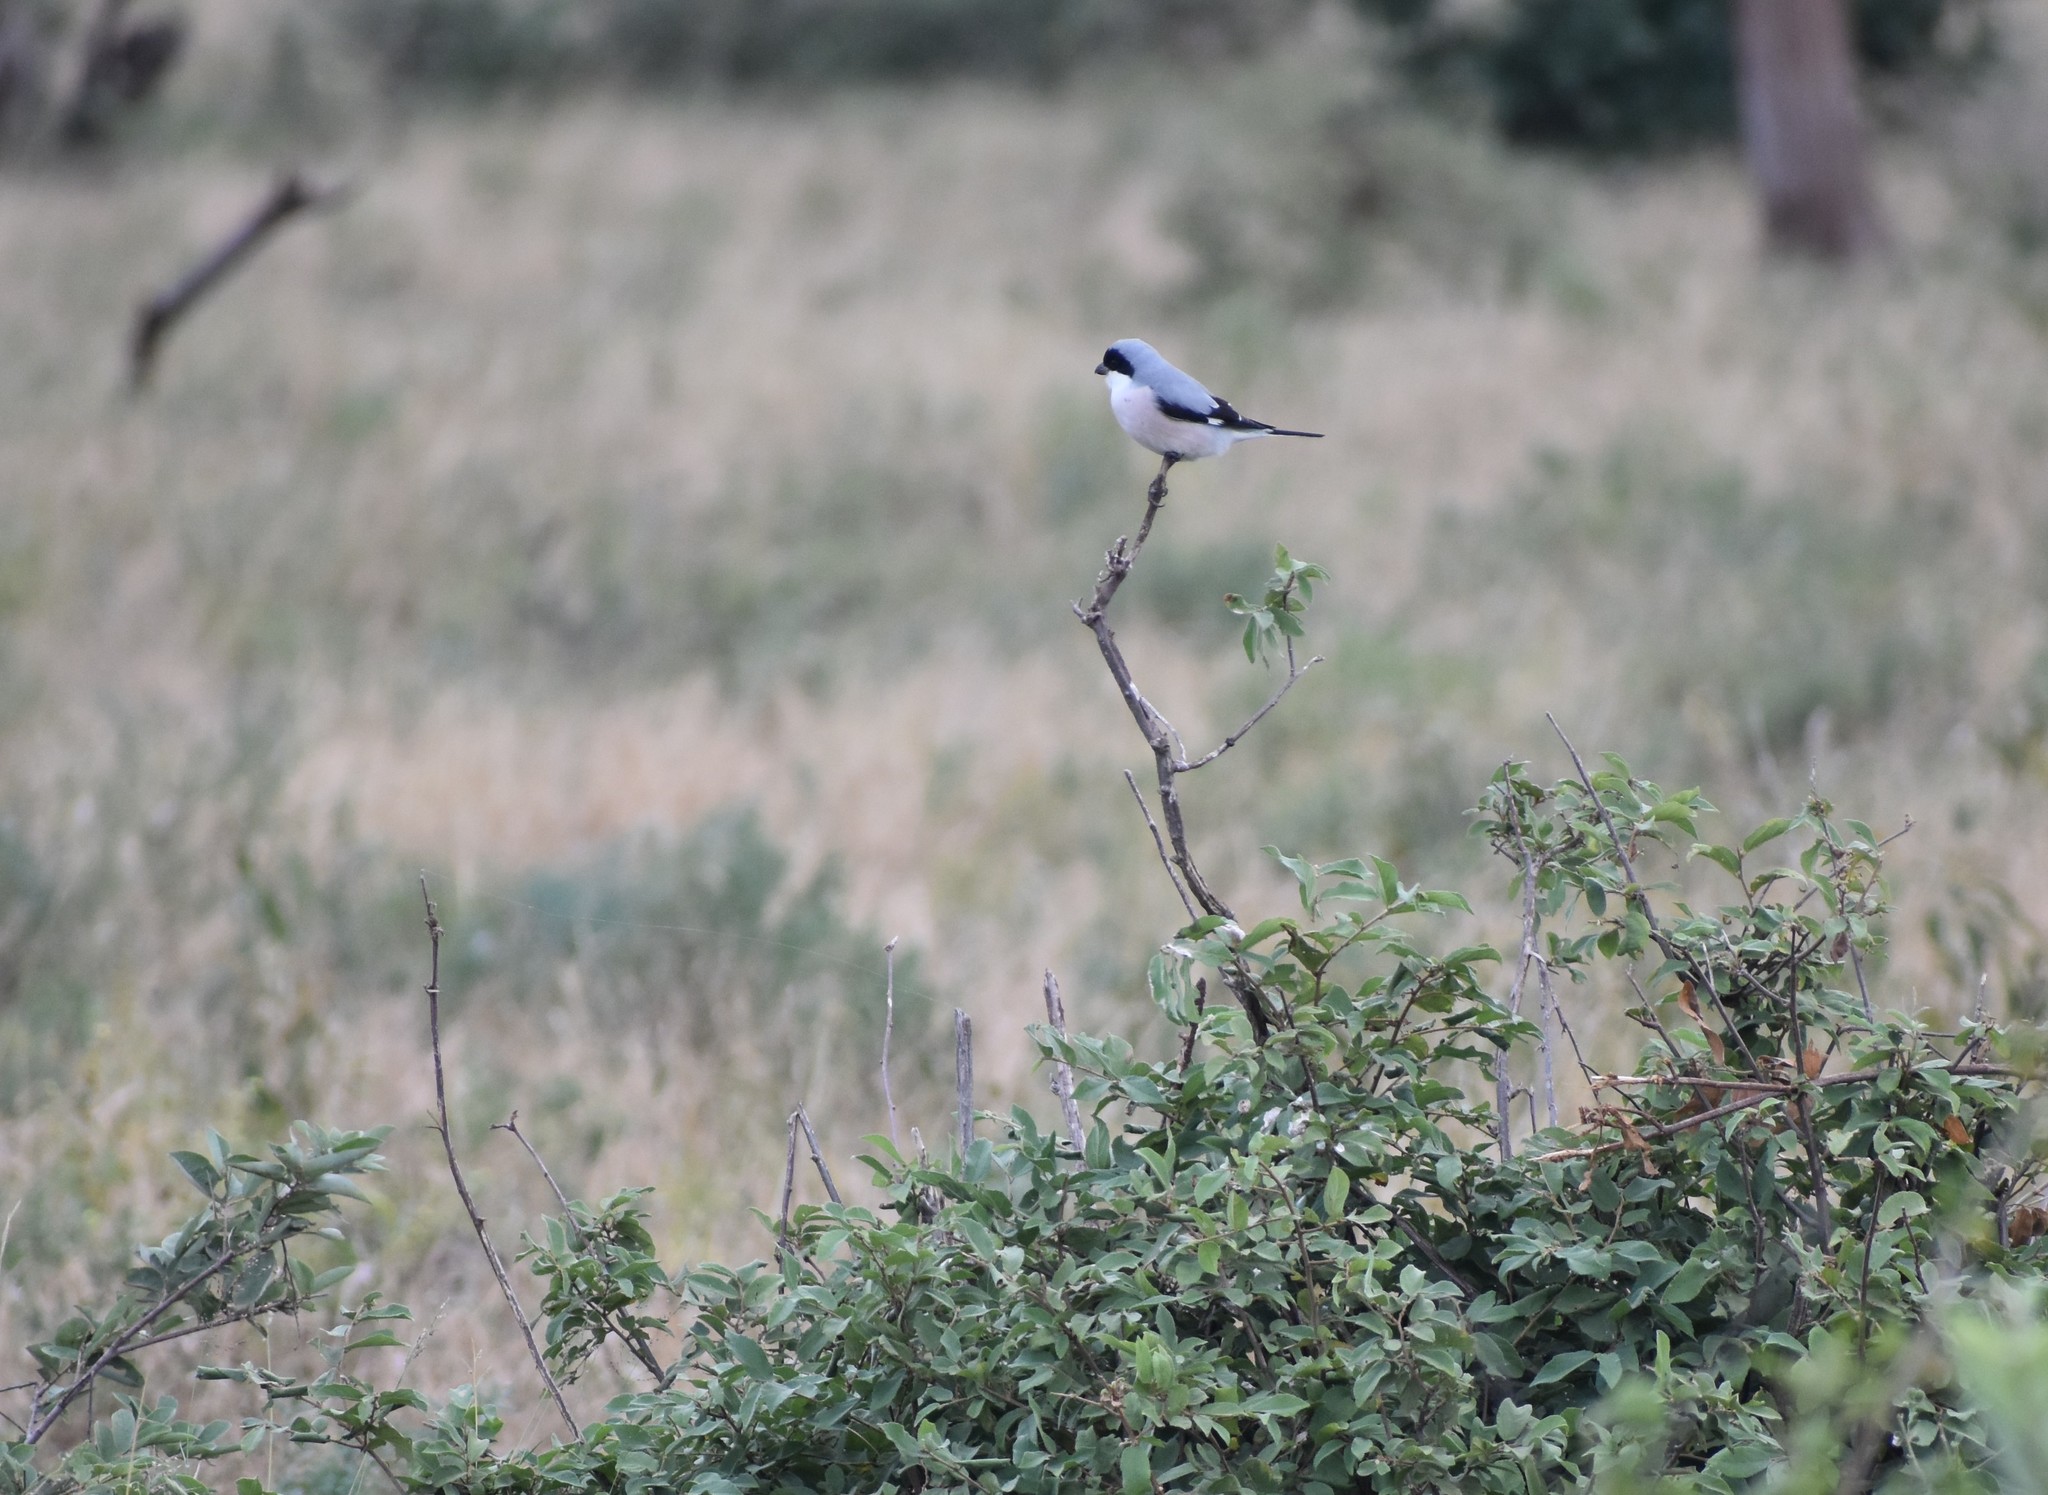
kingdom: Animalia
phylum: Chordata
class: Aves
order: Passeriformes
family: Laniidae
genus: Lanius
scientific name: Lanius minor
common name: Lesser grey shrike
